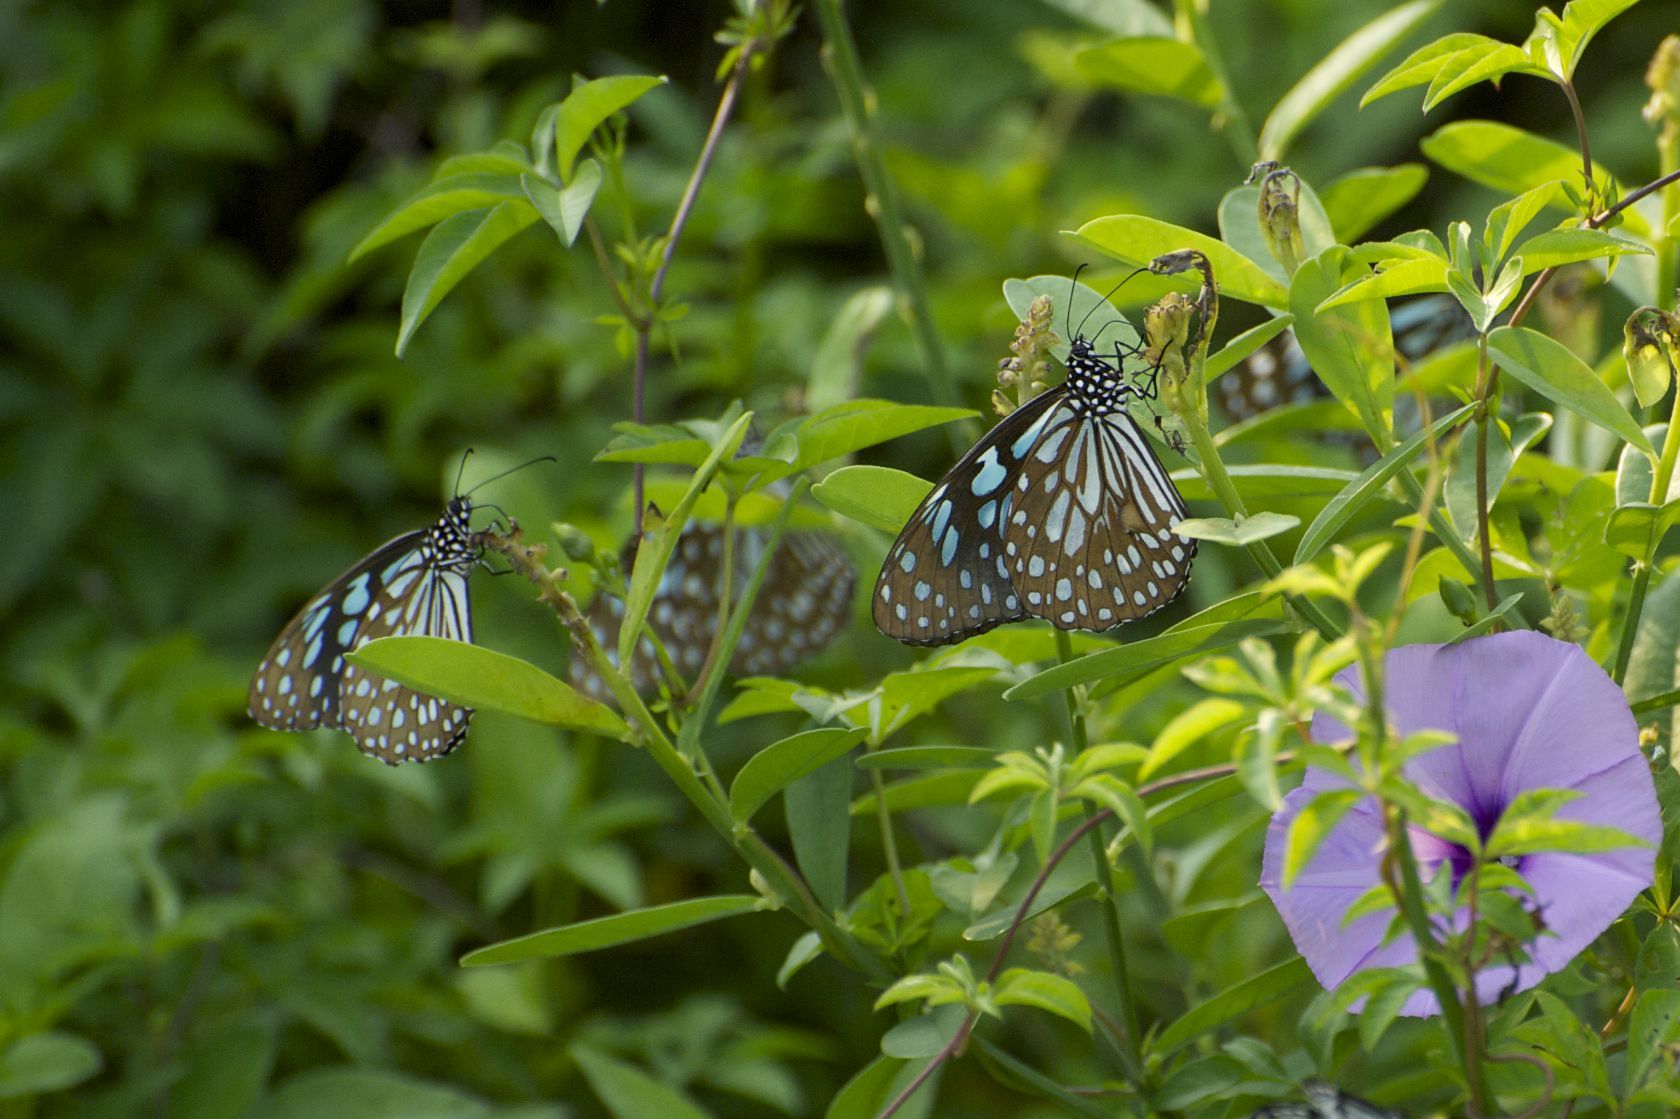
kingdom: Animalia
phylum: Arthropoda
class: Insecta
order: Lepidoptera
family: Nymphalidae
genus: Tirumala
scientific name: Tirumala limniace
